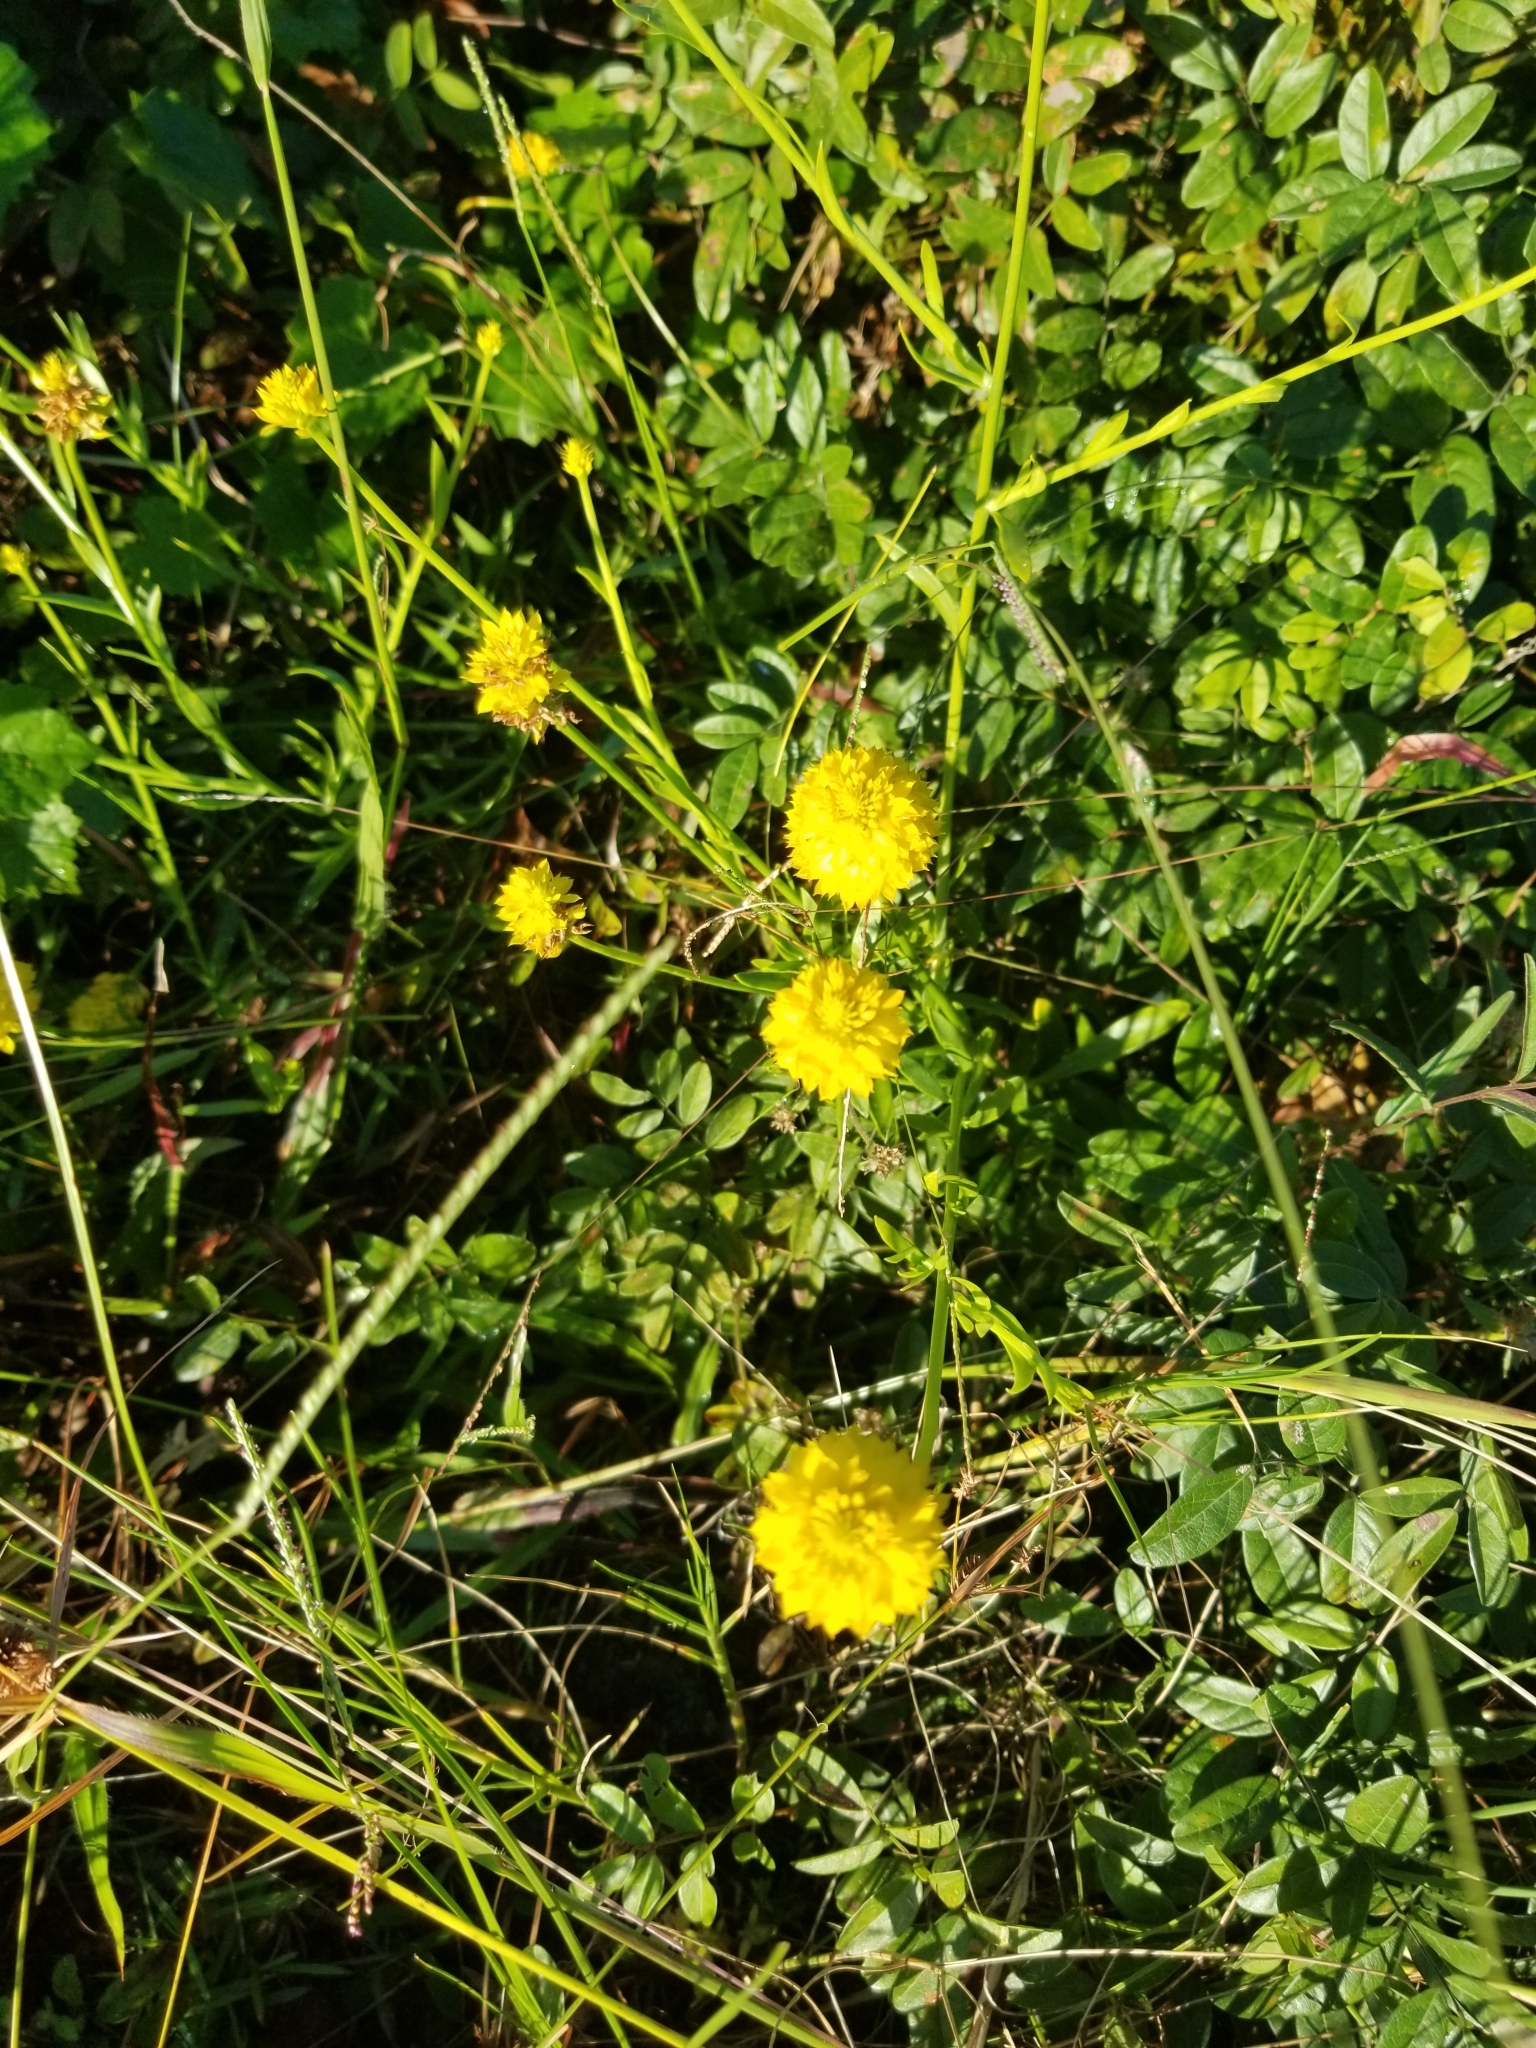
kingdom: Plantae
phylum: Tracheophyta
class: Magnoliopsida
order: Fabales
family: Polygalaceae
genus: Polygala
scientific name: Polygala rugelii
